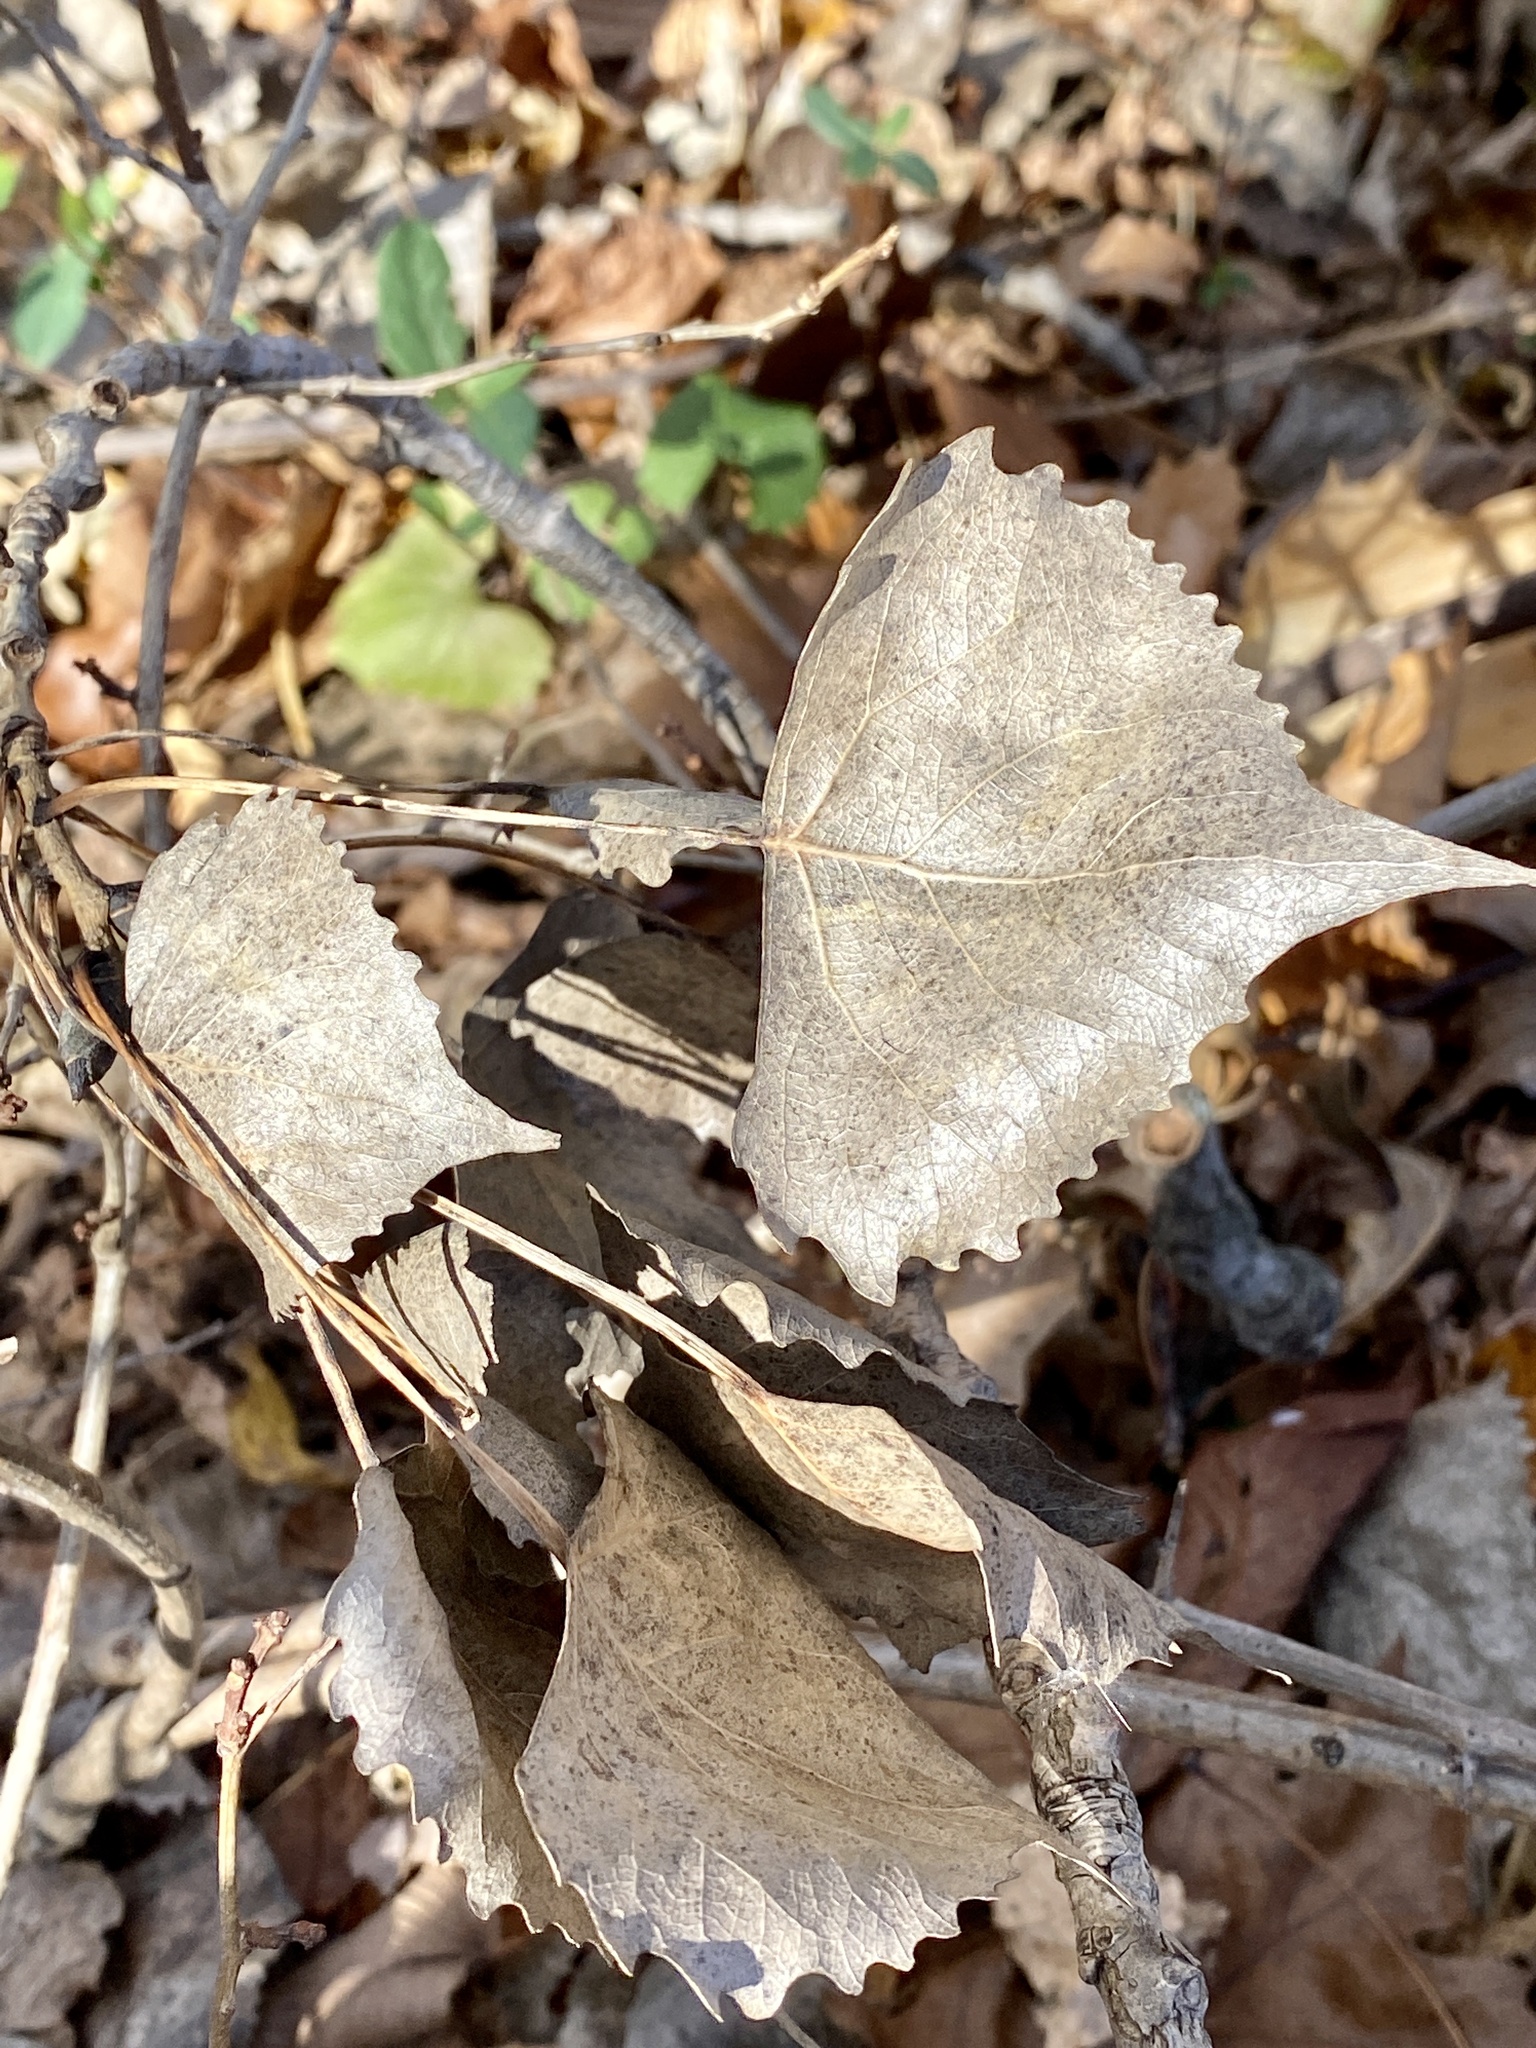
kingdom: Plantae
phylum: Tracheophyta
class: Magnoliopsida
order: Malpighiales
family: Salicaceae
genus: Populus
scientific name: Populus deltoides
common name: Eastern cottonwood
